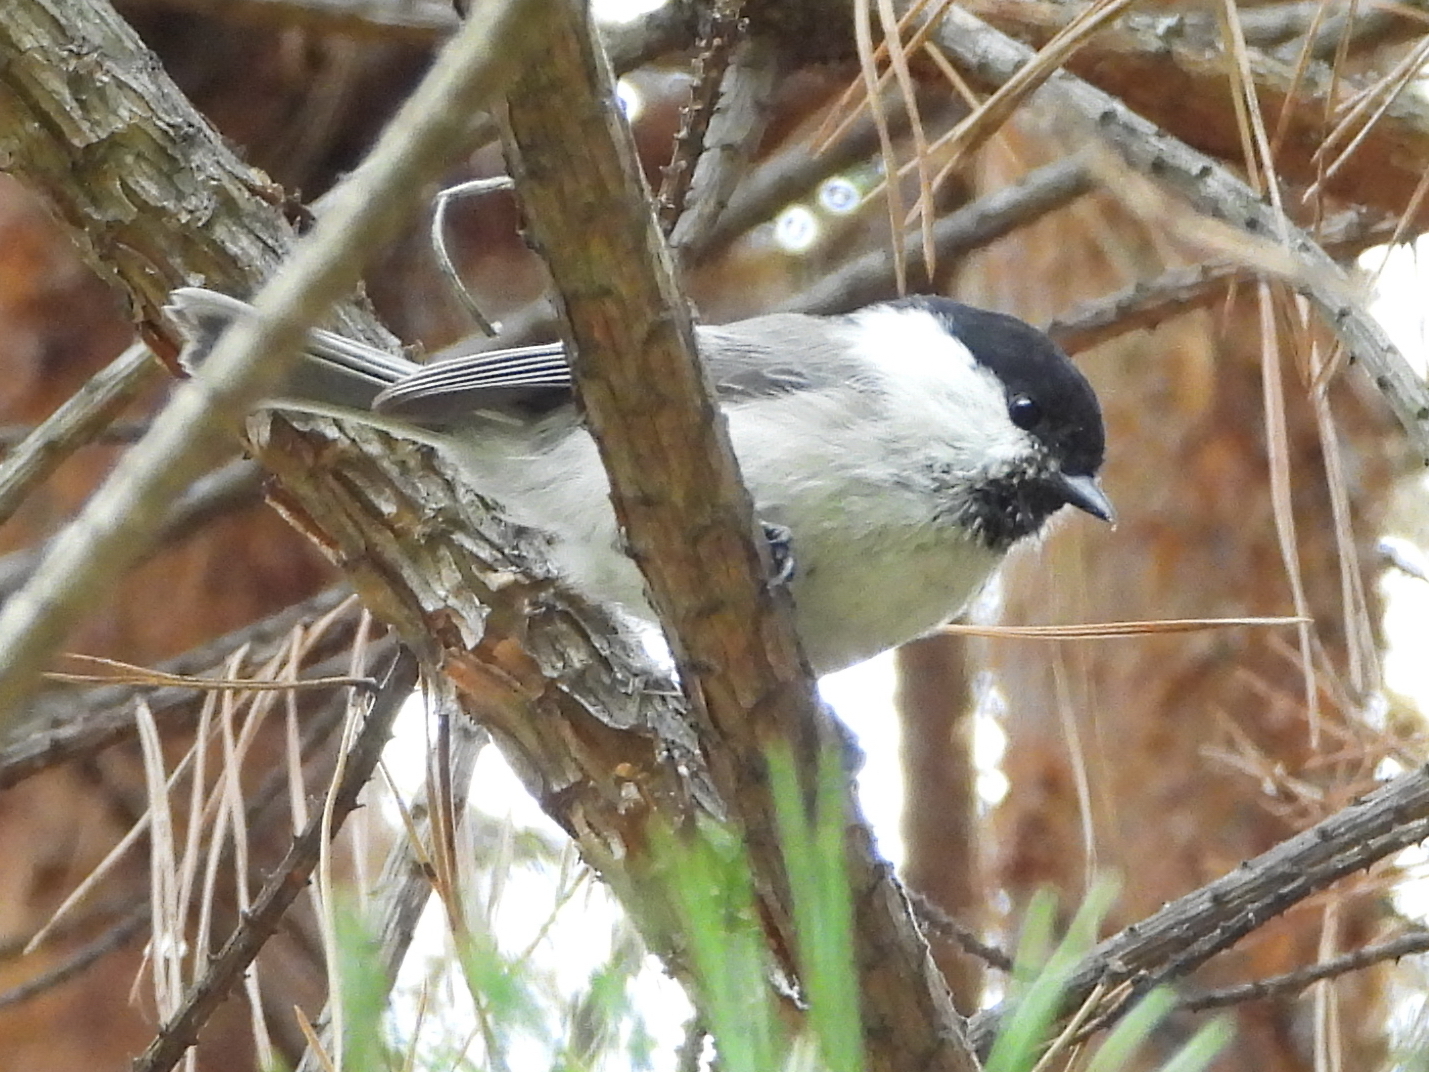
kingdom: Animalia
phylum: Chordata
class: Aves
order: Passeriformes
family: Paridae
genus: Poecile
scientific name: Poecile montanus
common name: Willow tit
